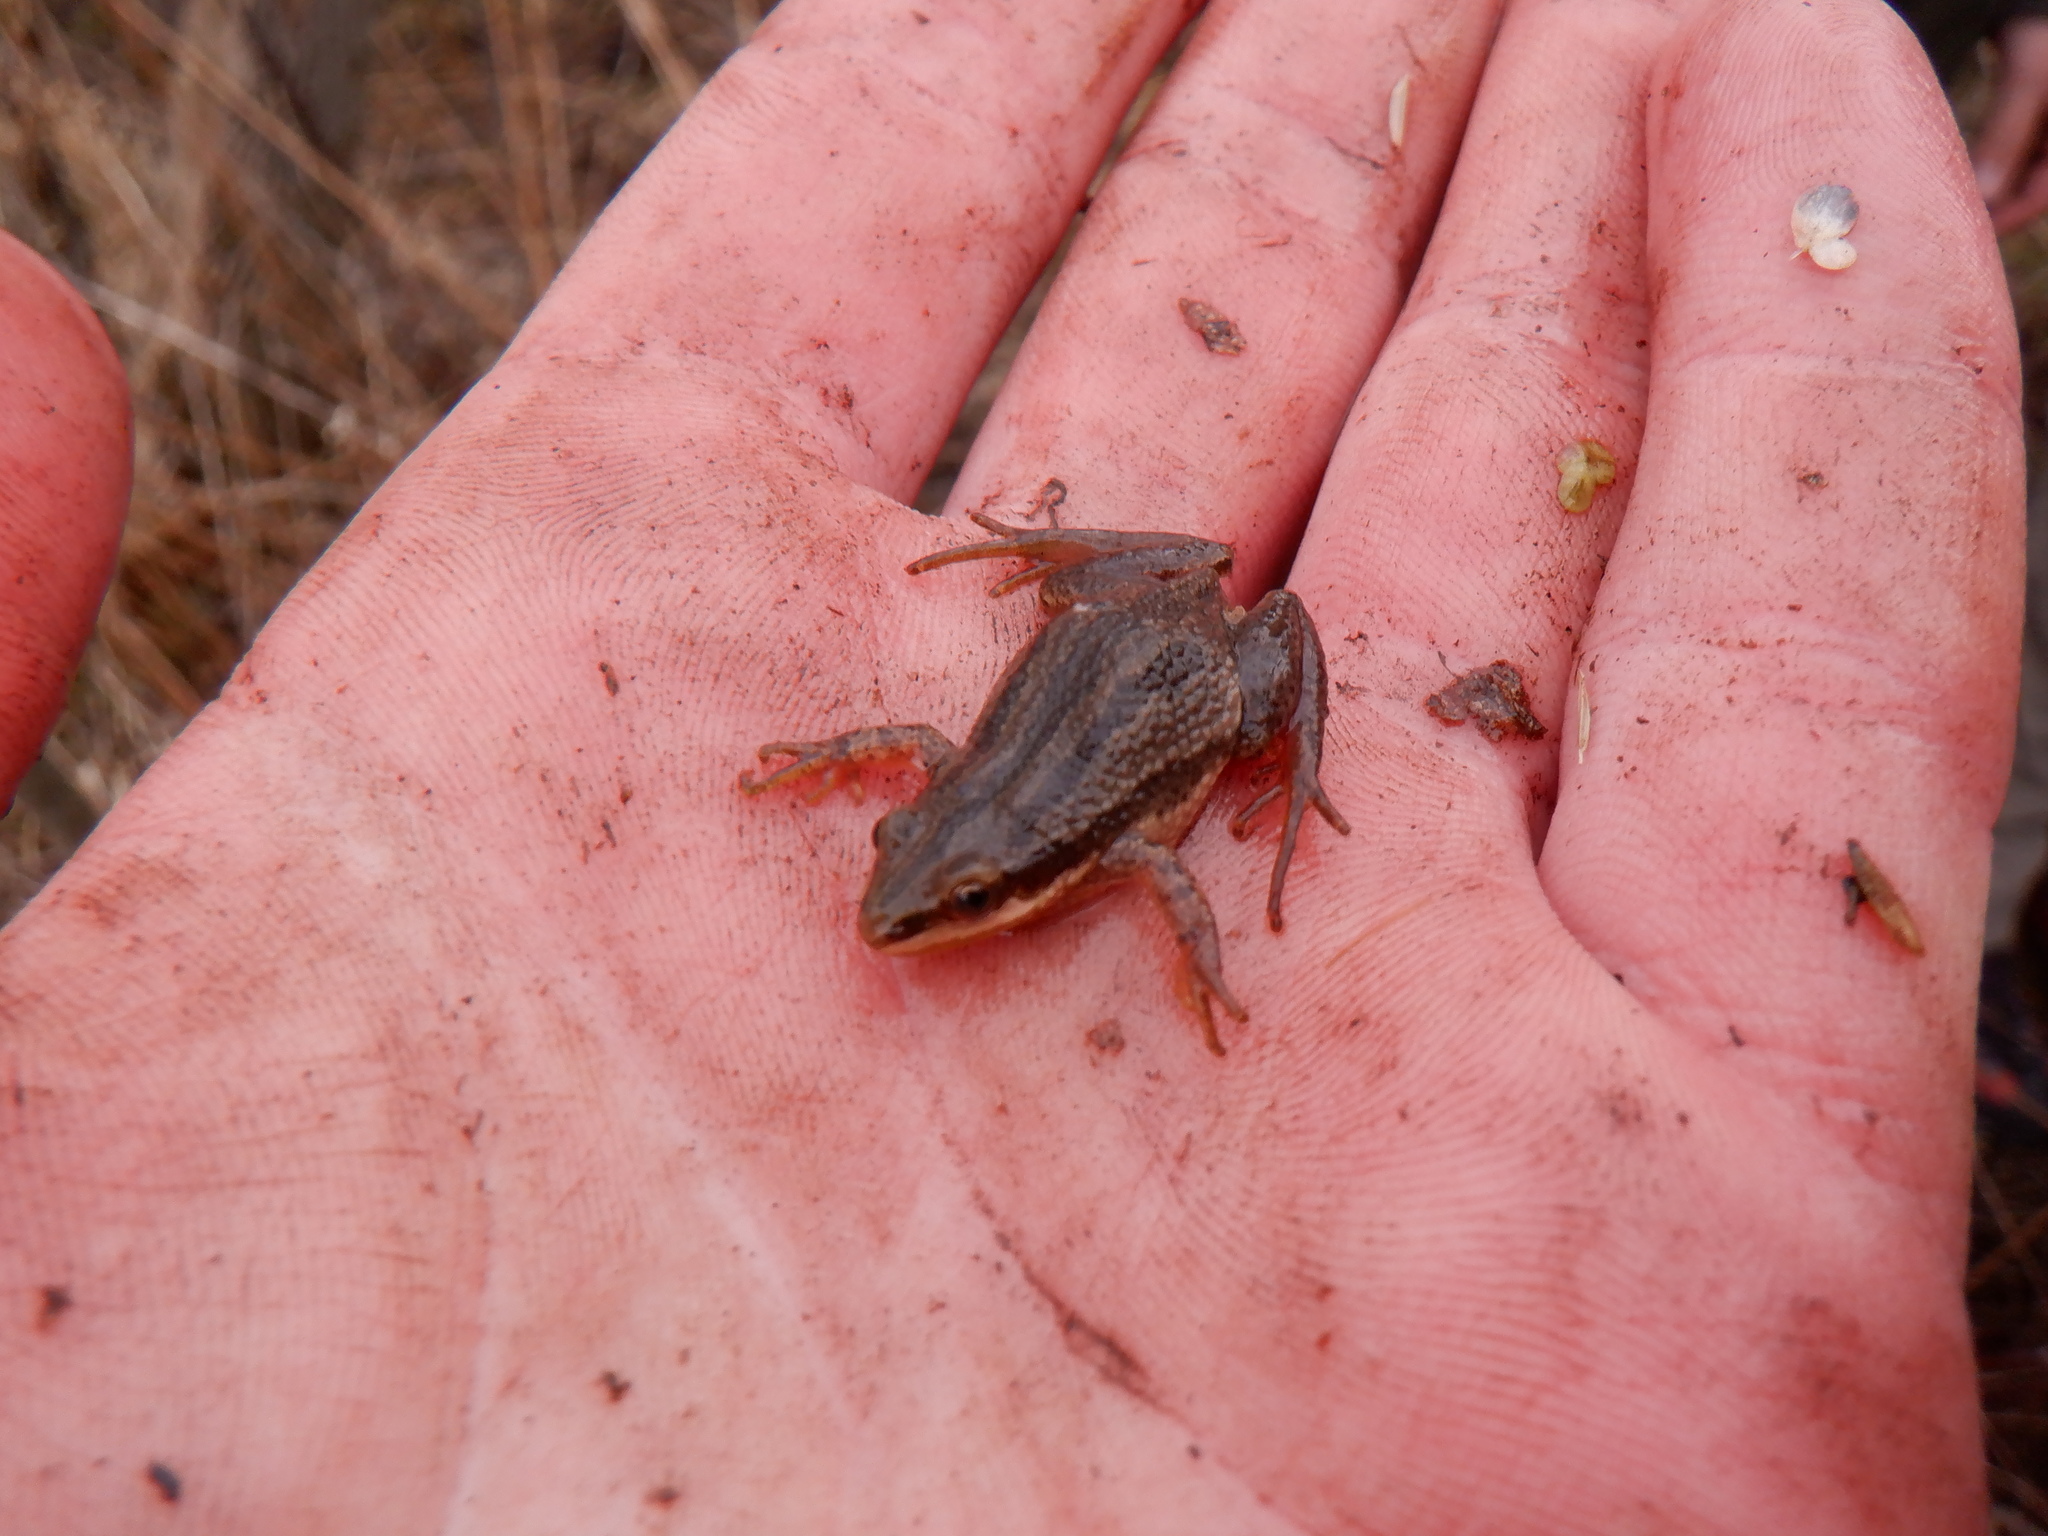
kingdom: Animalia
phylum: Chordata
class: Amphibia
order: Anura
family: Hylidae
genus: Pseudacris
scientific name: Pseudacris maculata
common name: Boreal chorus frog
